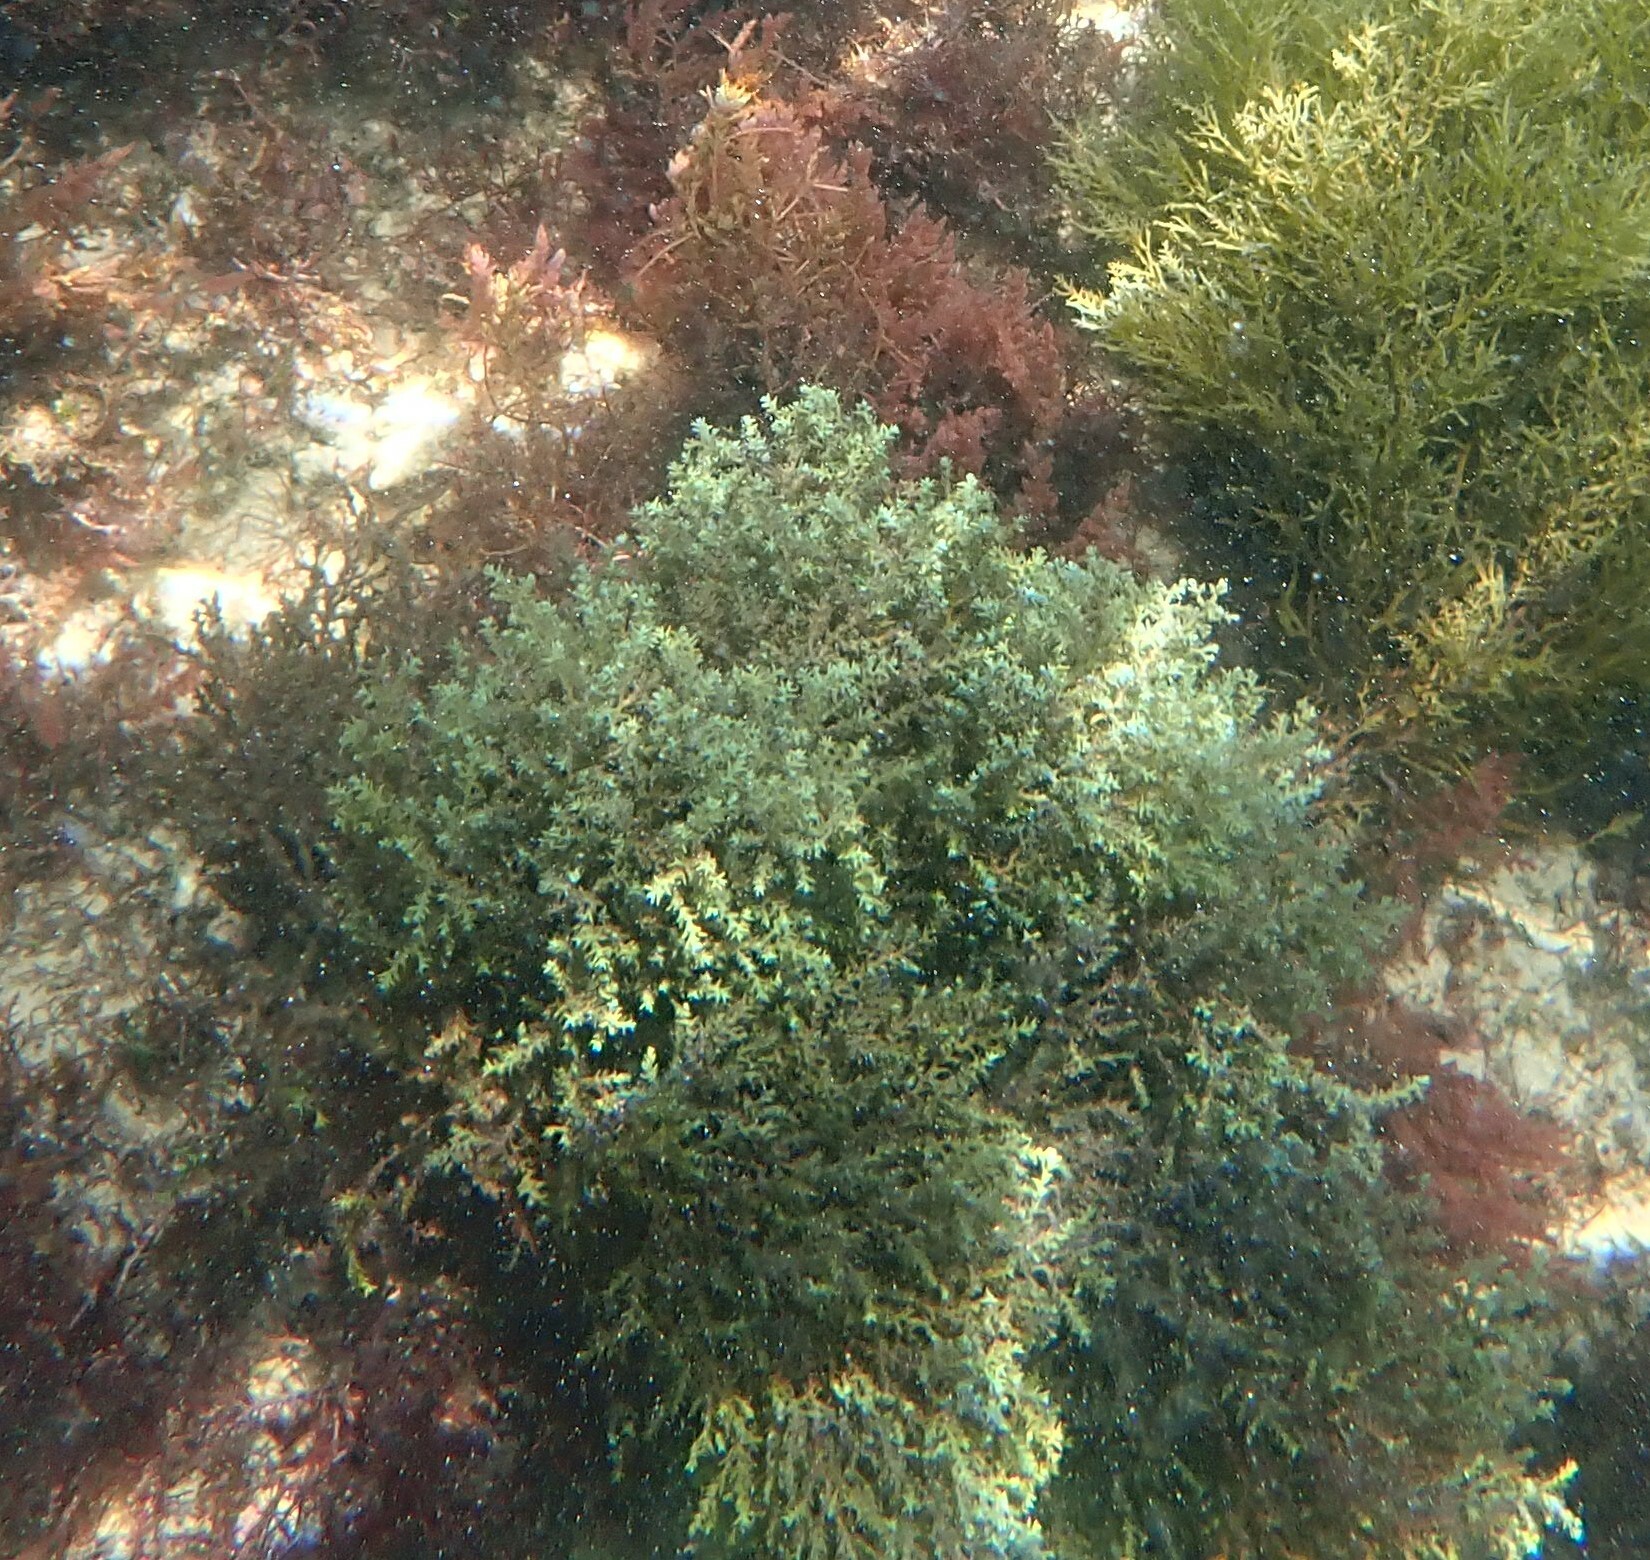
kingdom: Chromista
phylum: Ochrophyta
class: Phaeophyceae
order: Fucales
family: Sargassaceae
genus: Cystoseira
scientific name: Cystoseira Ericaria selaginoides
